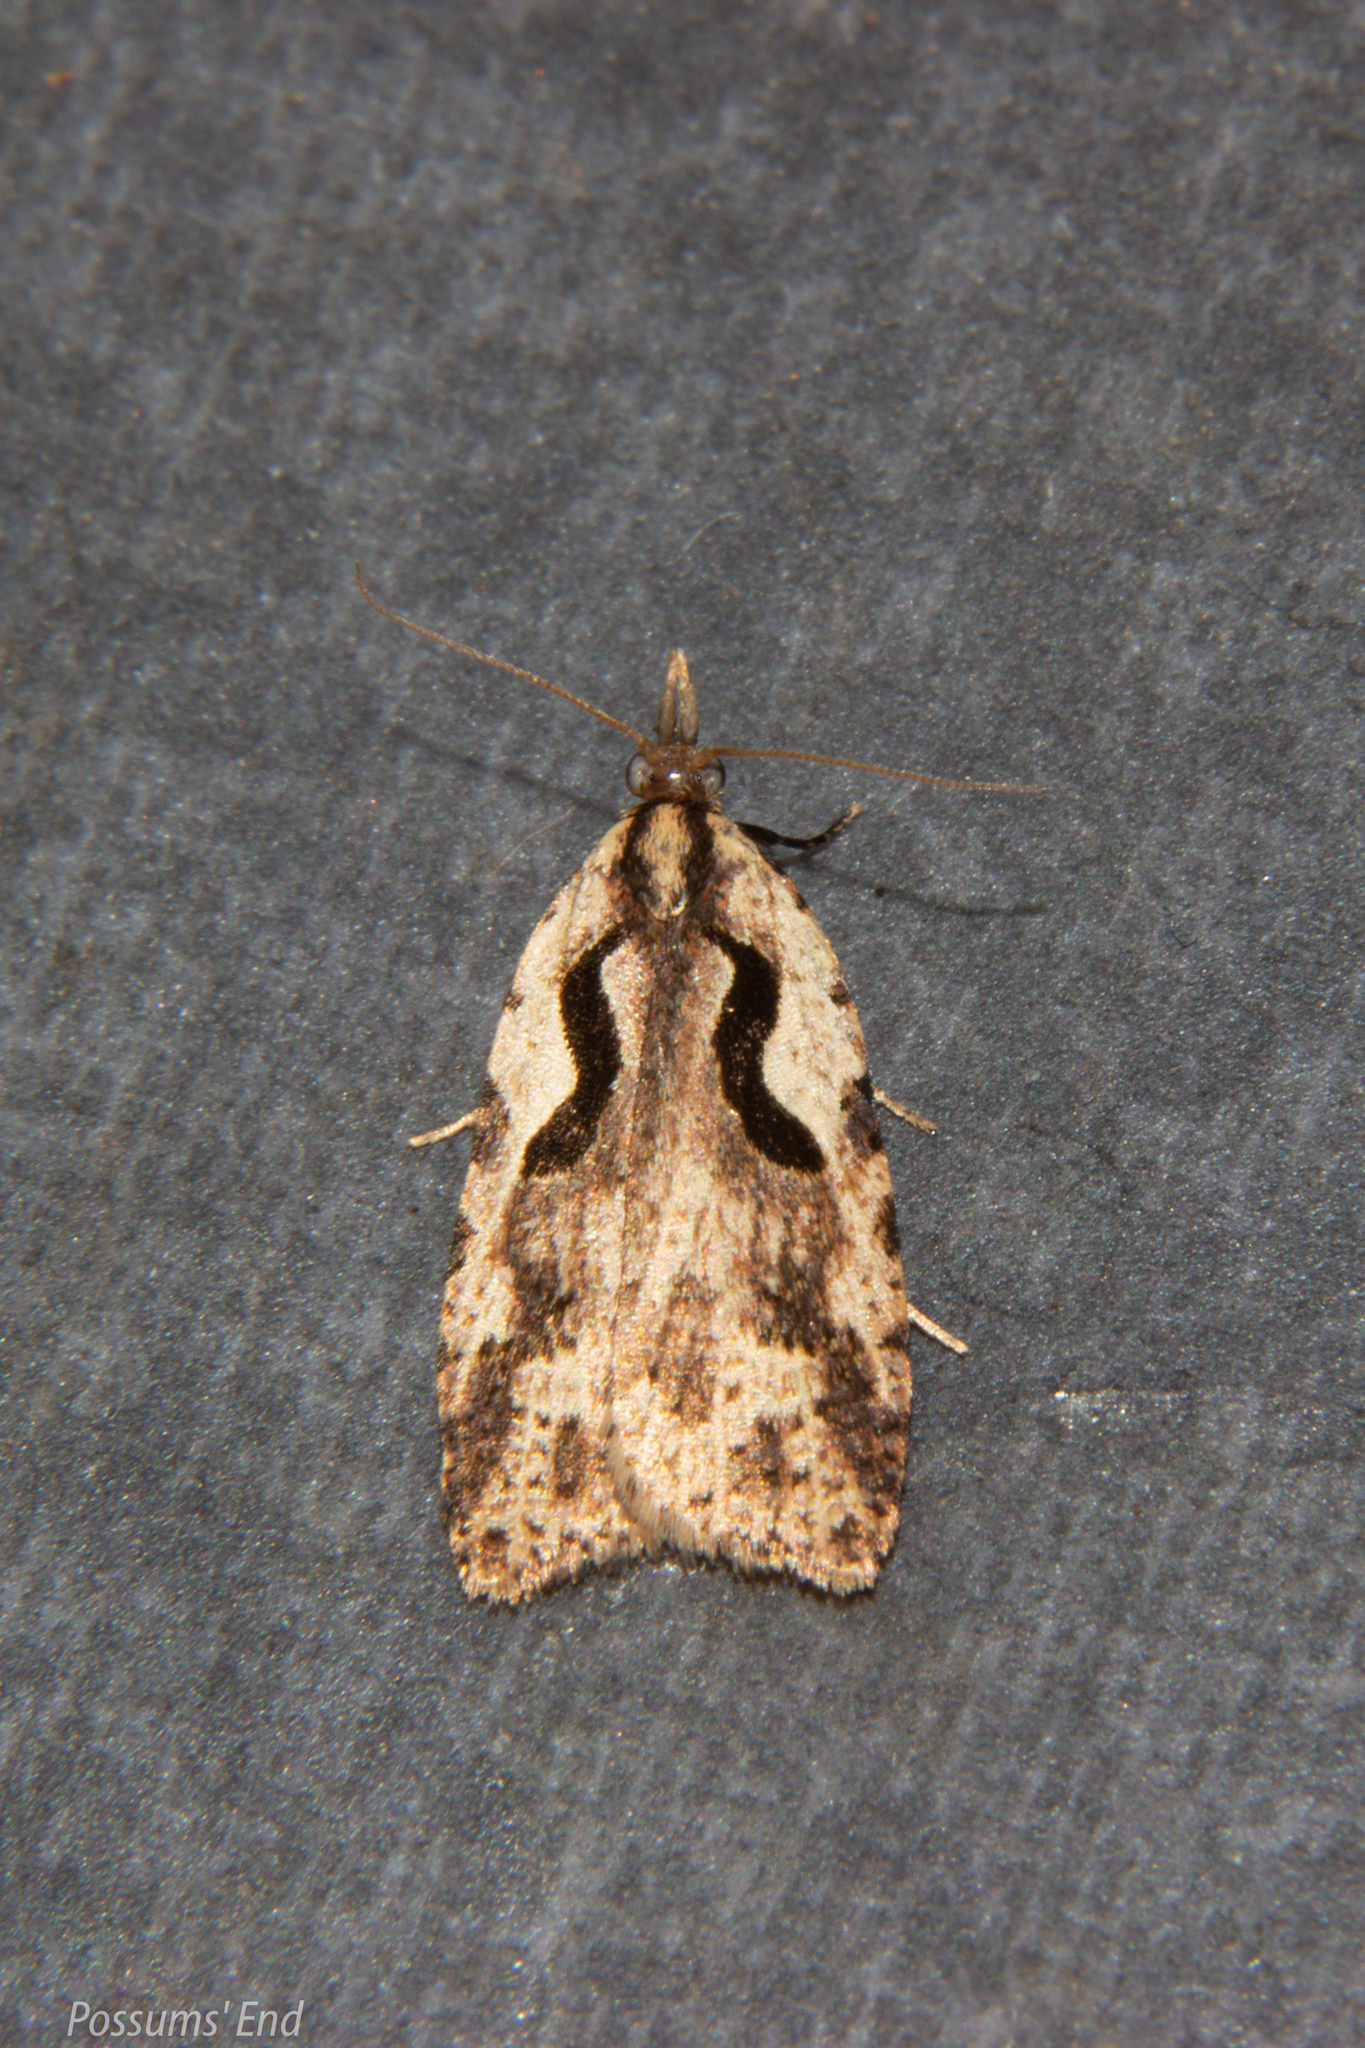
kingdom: Animalia
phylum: Arthropoda
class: Insecta
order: Lepidoptera
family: Tortricidae
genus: Cnephasia
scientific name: Cnephasia jactatana
